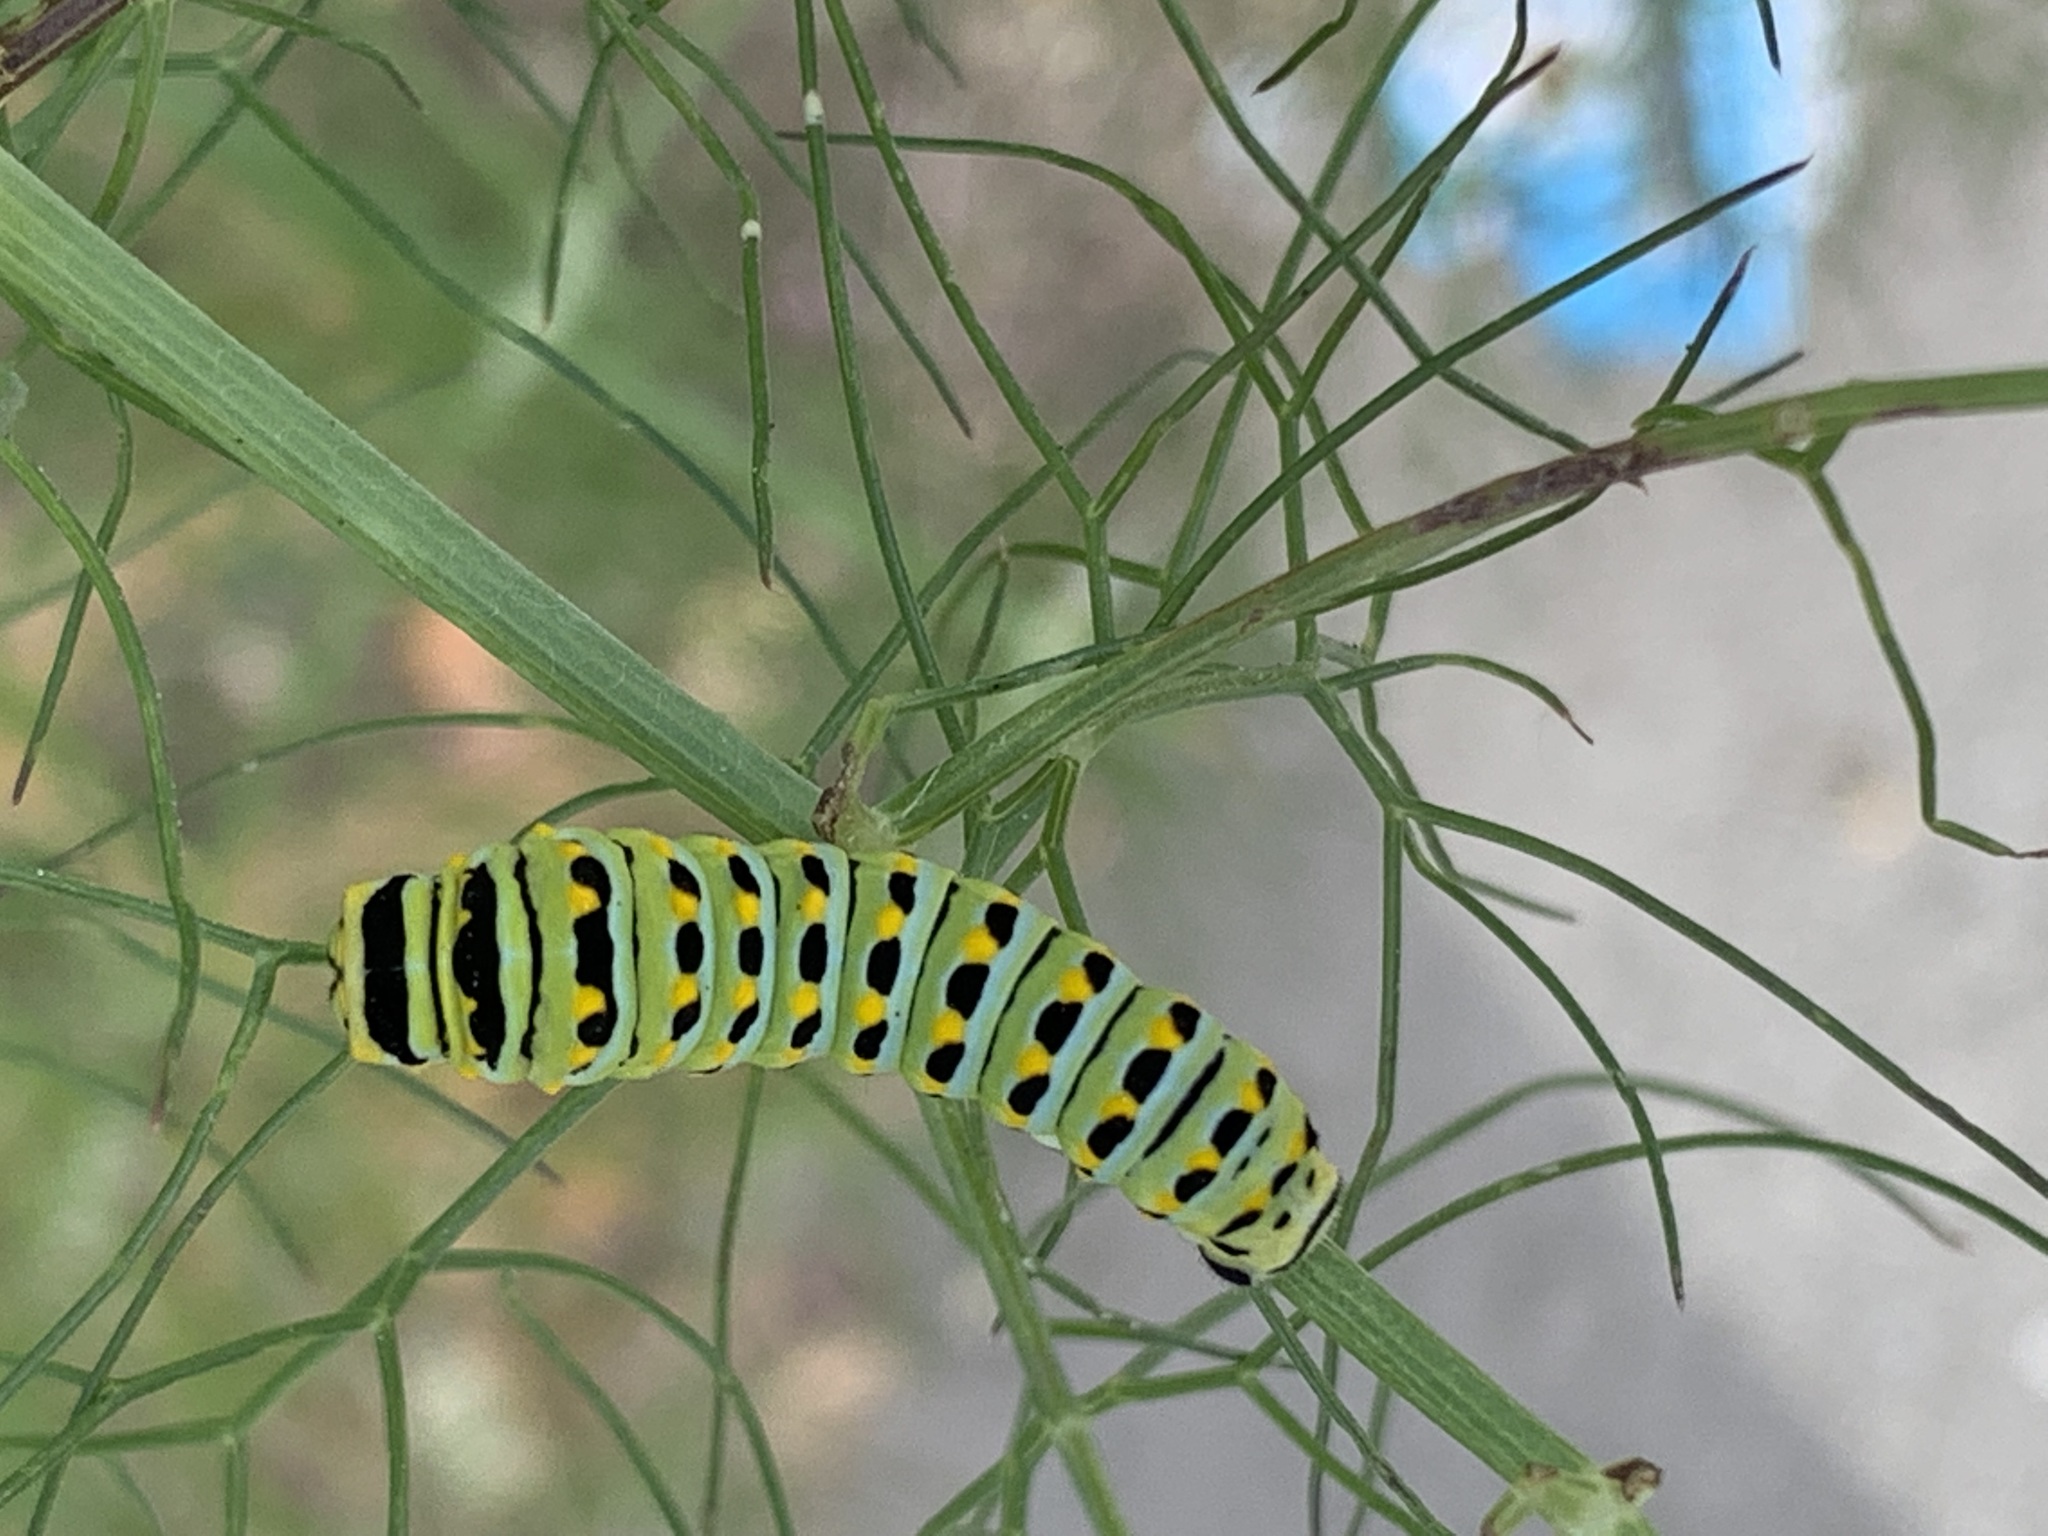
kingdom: Animalia
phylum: Arthropoda
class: Insecta
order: Lepidoptera
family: Papilionidae
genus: Papilio
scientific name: Papilio zelicaon
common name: Anise swallowtail
